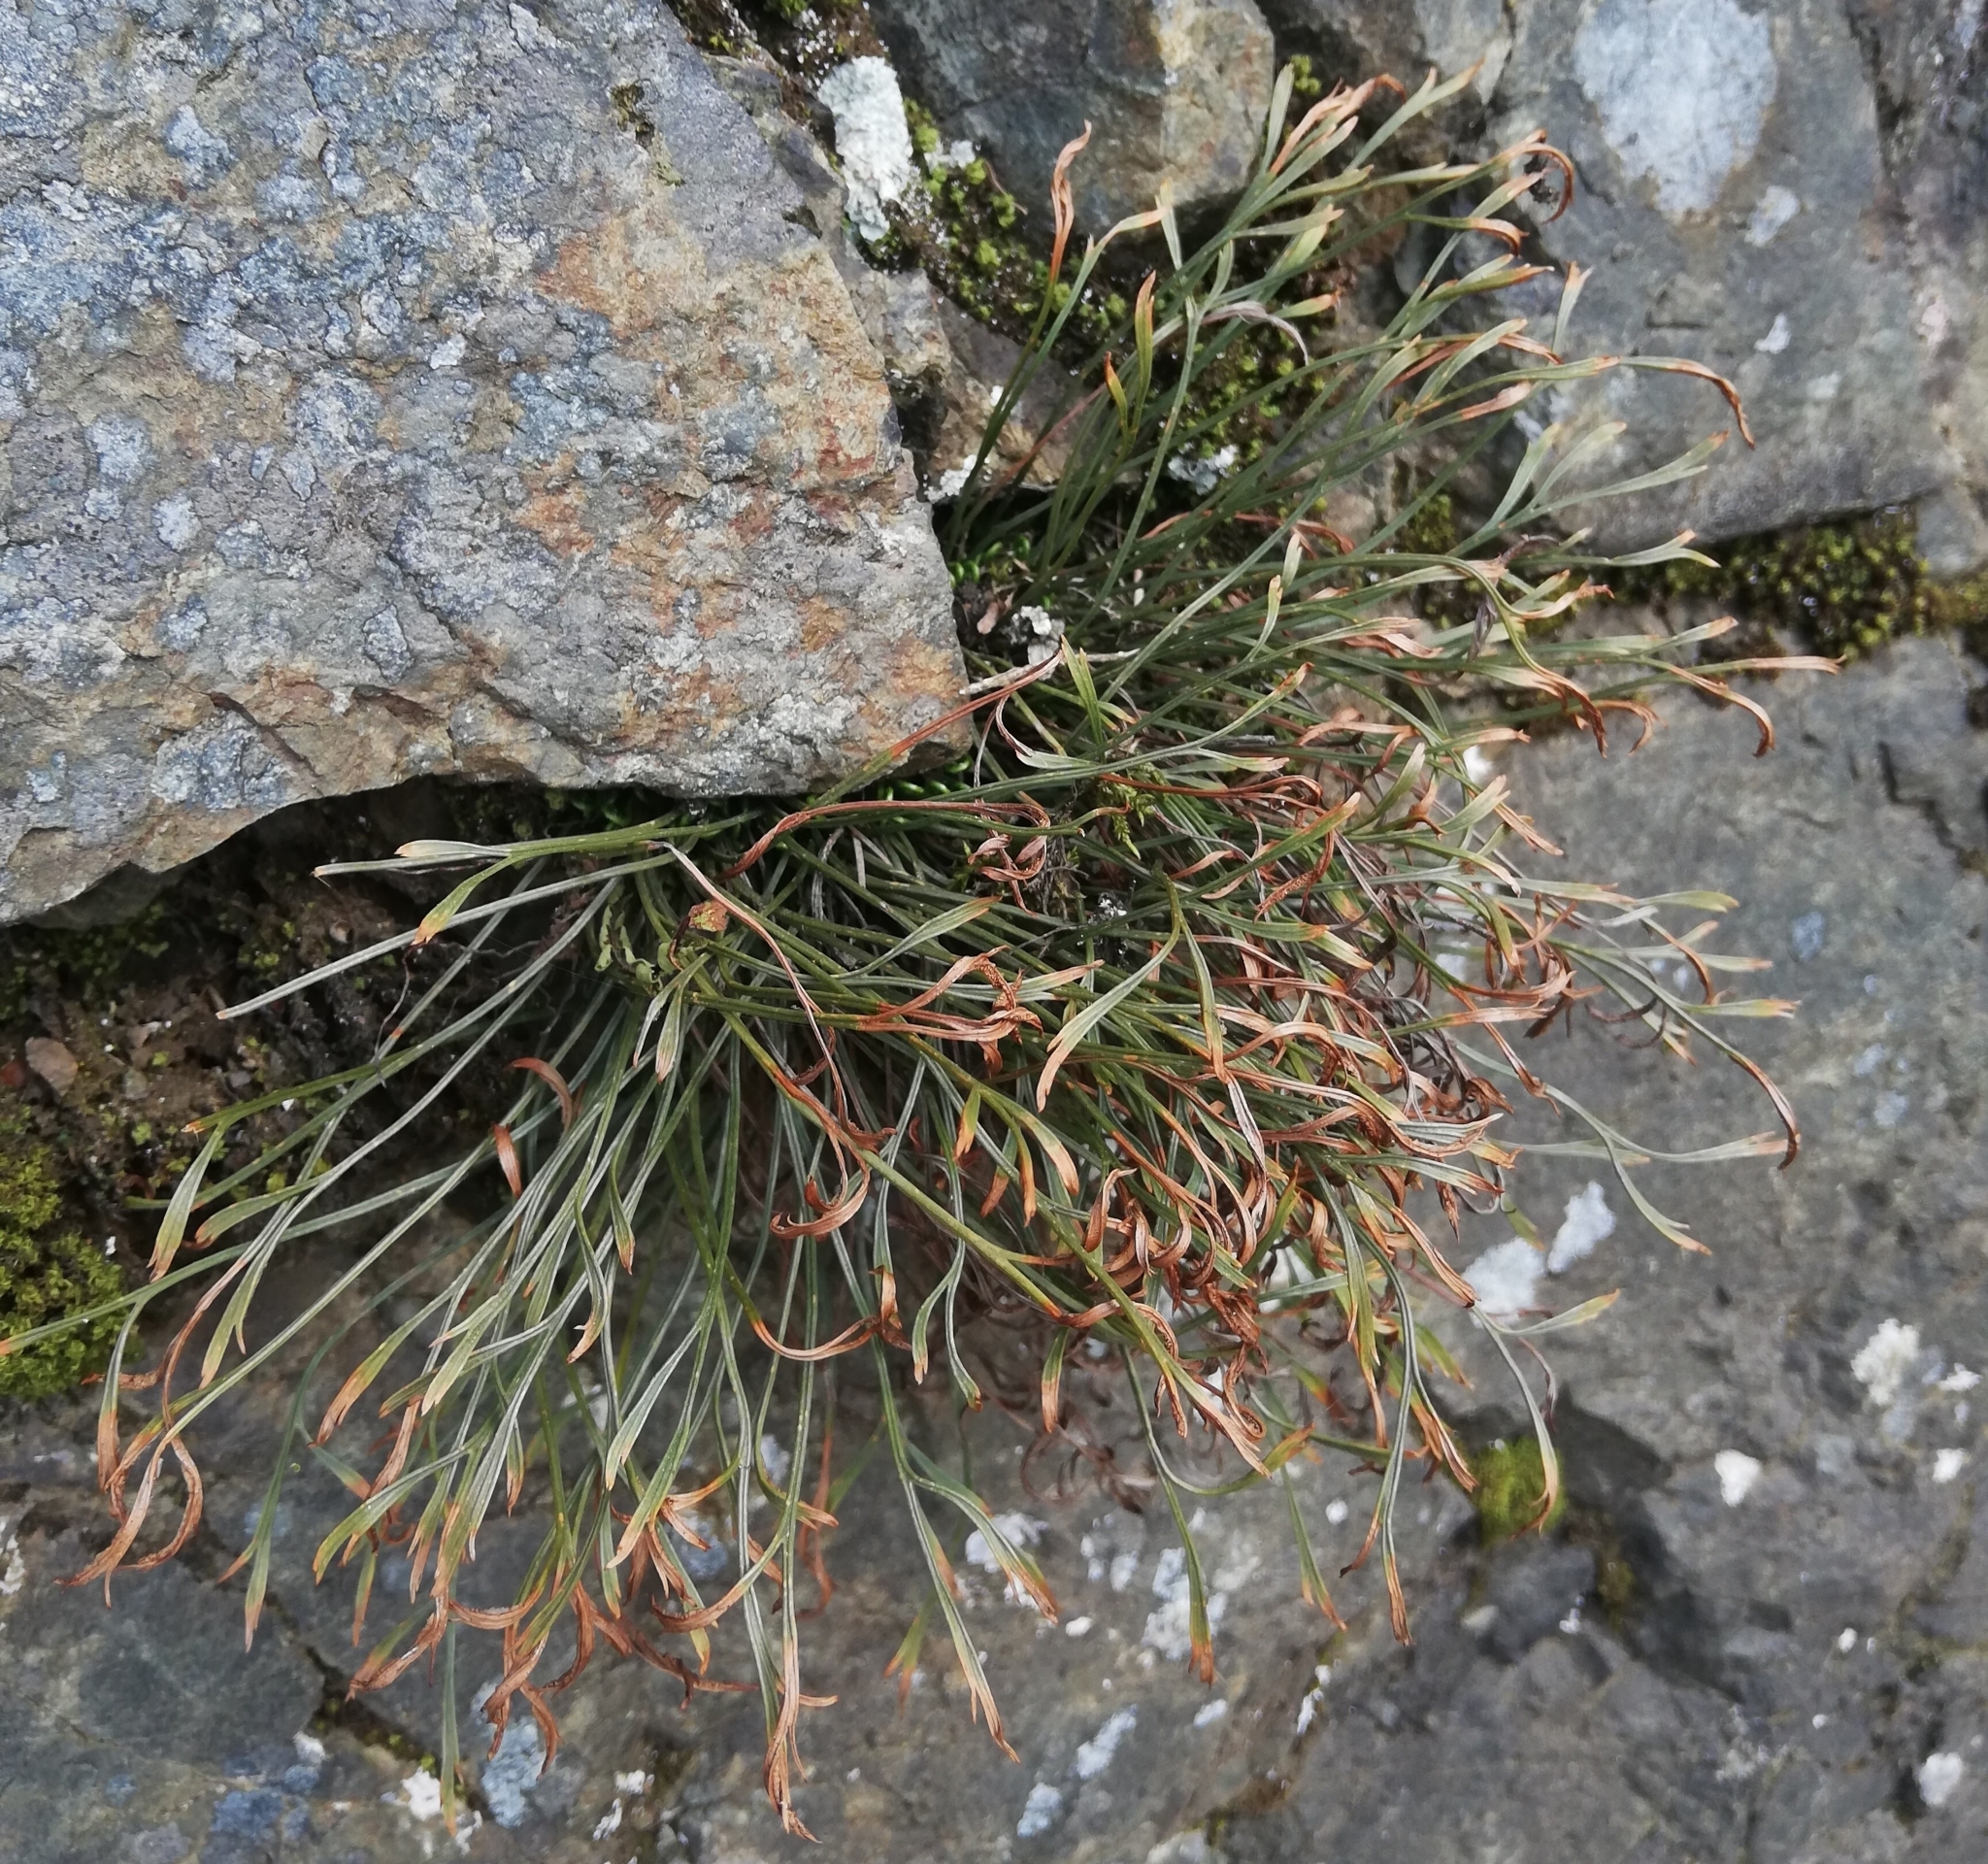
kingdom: Plantae
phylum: Tracheophyta
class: Polypodiopsida
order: Polypodiales
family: Aspleniaceae
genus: Asplenium
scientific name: Asplenium septentrionale
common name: Forked spleenwort
